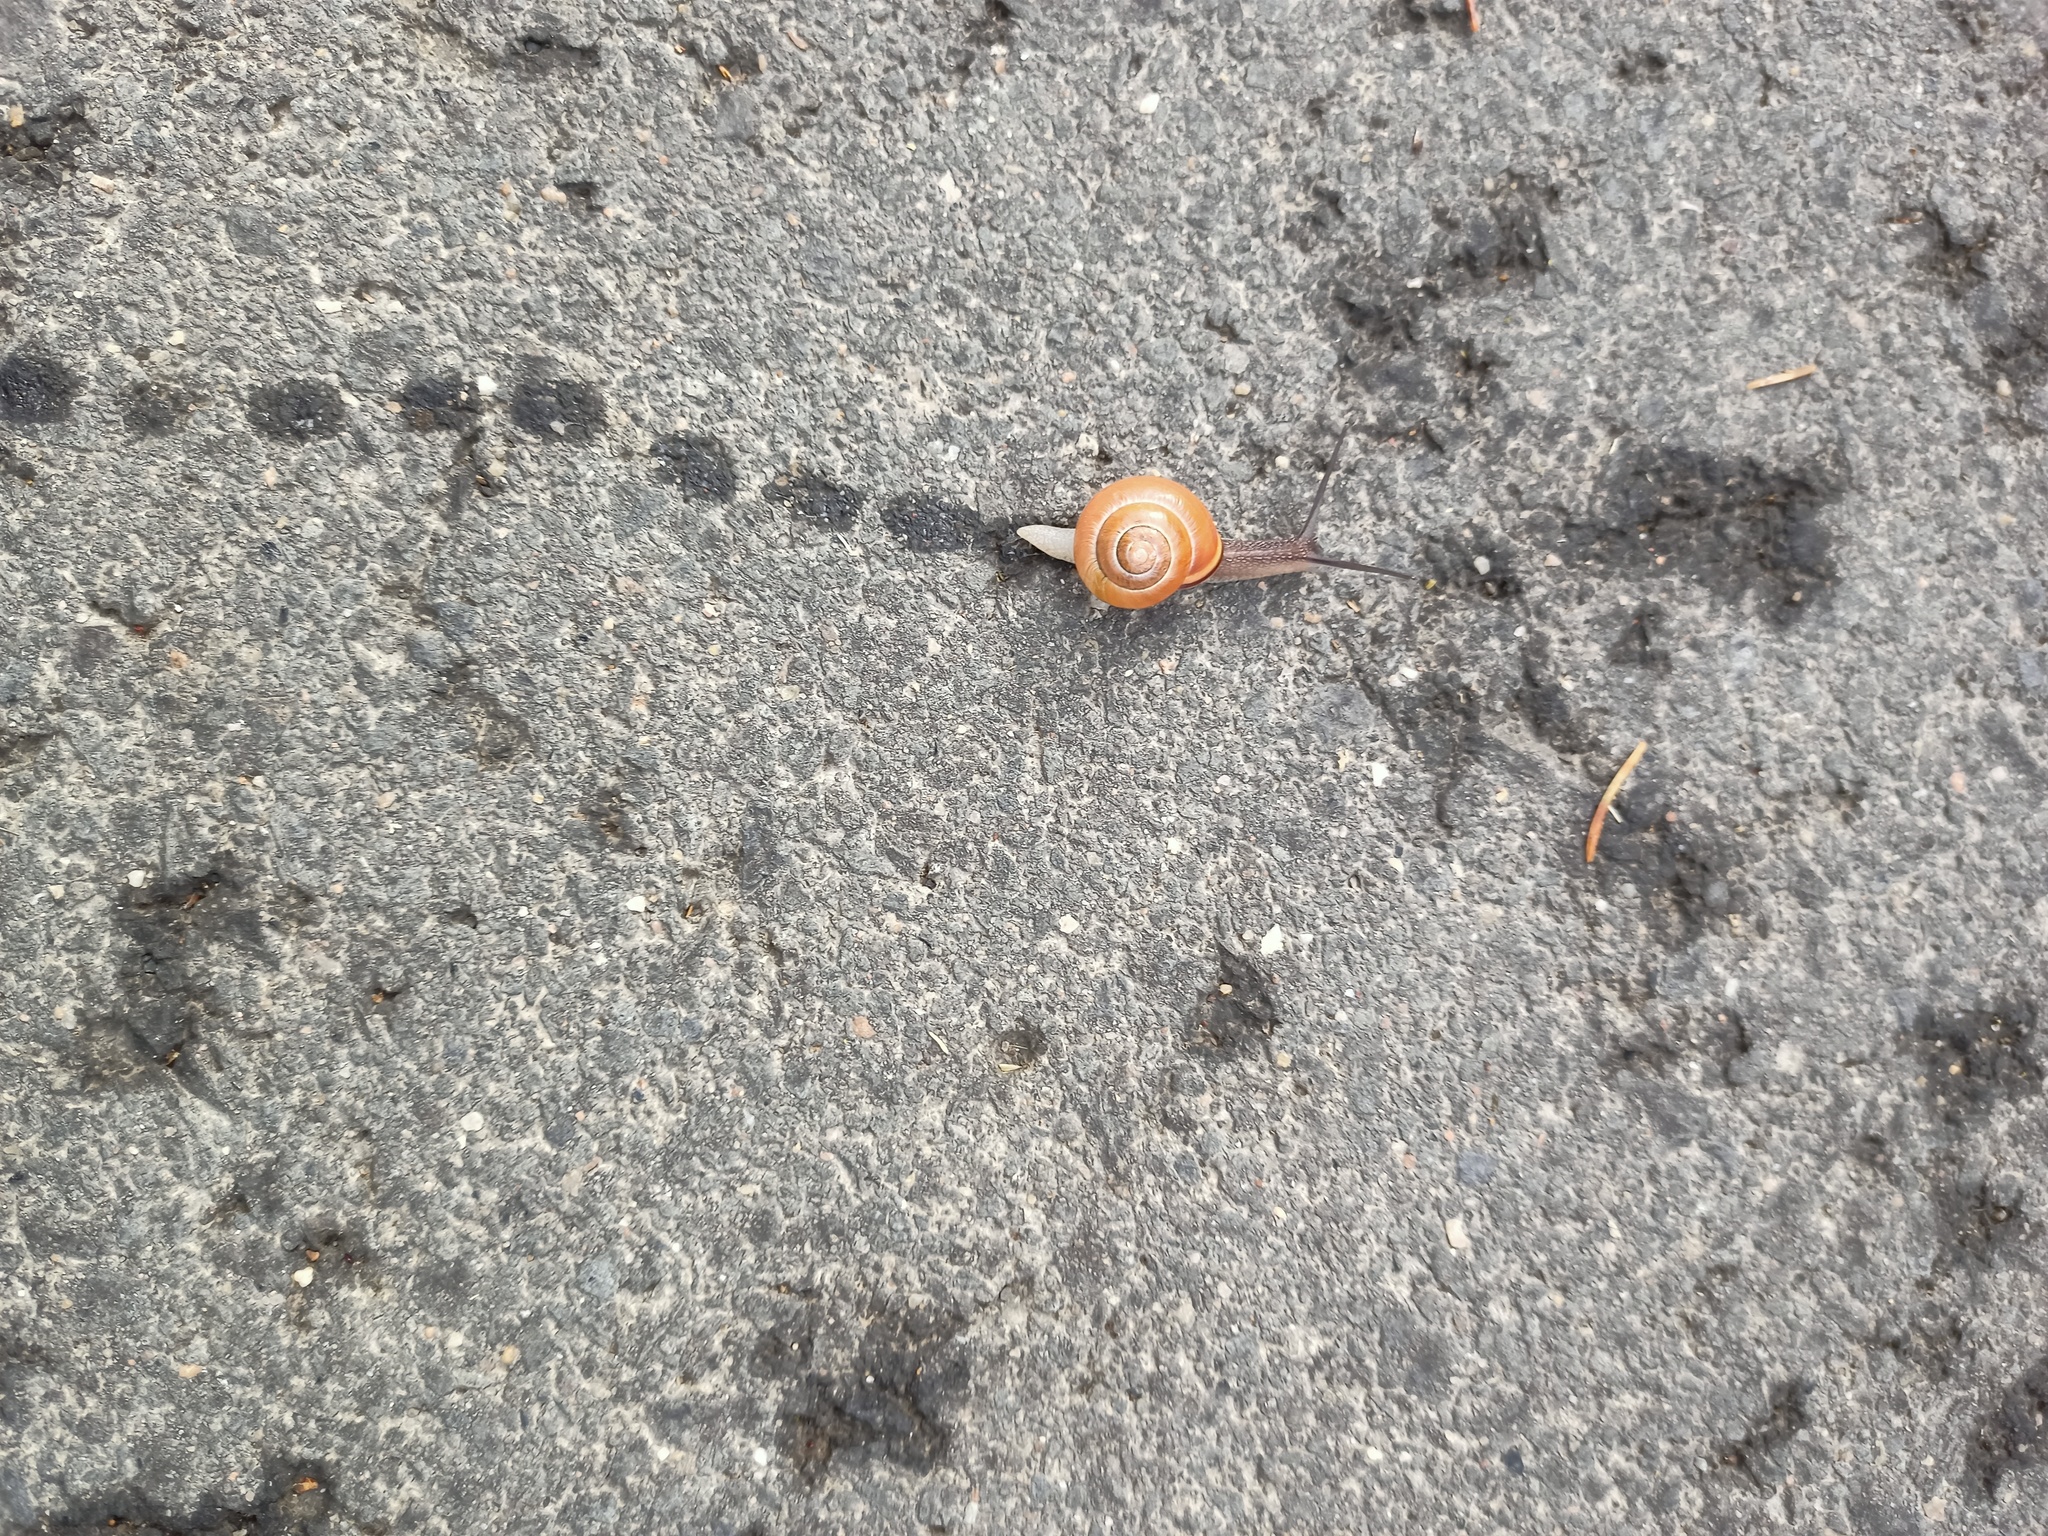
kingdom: Animalia
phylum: Mollusca
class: Gastropoda
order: Stylommatophora
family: Helicidae
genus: Cepaea
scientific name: Cepaea nemoralis
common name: Grovesnail
